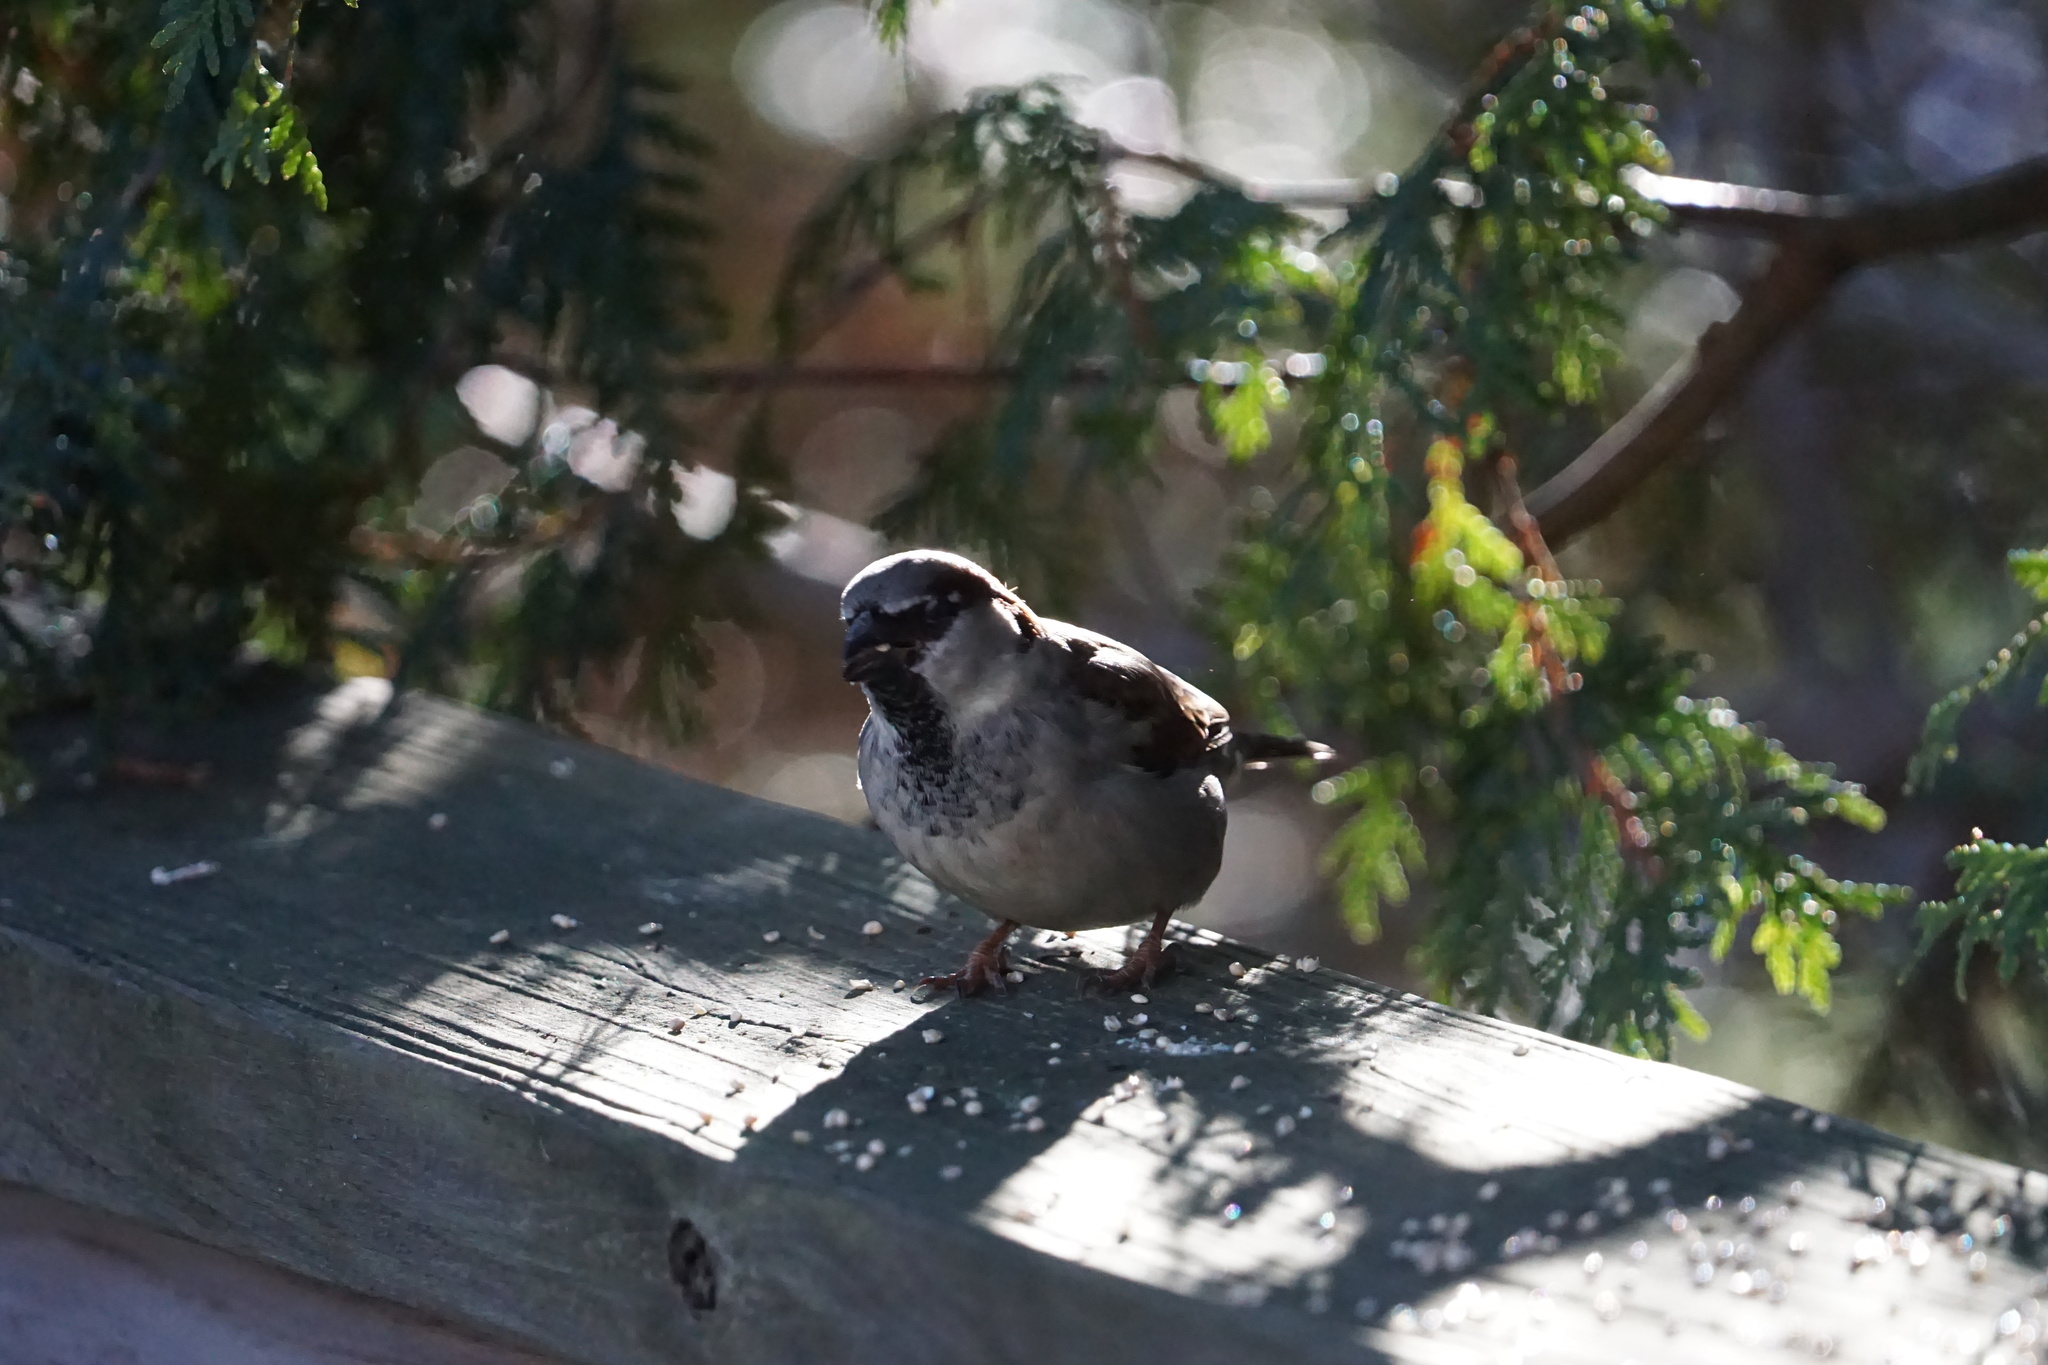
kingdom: Animalia
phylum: Chordata
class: Aves
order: Passeriformes
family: Passeridae
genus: Passer
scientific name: Passer domesticus
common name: House sparrow
